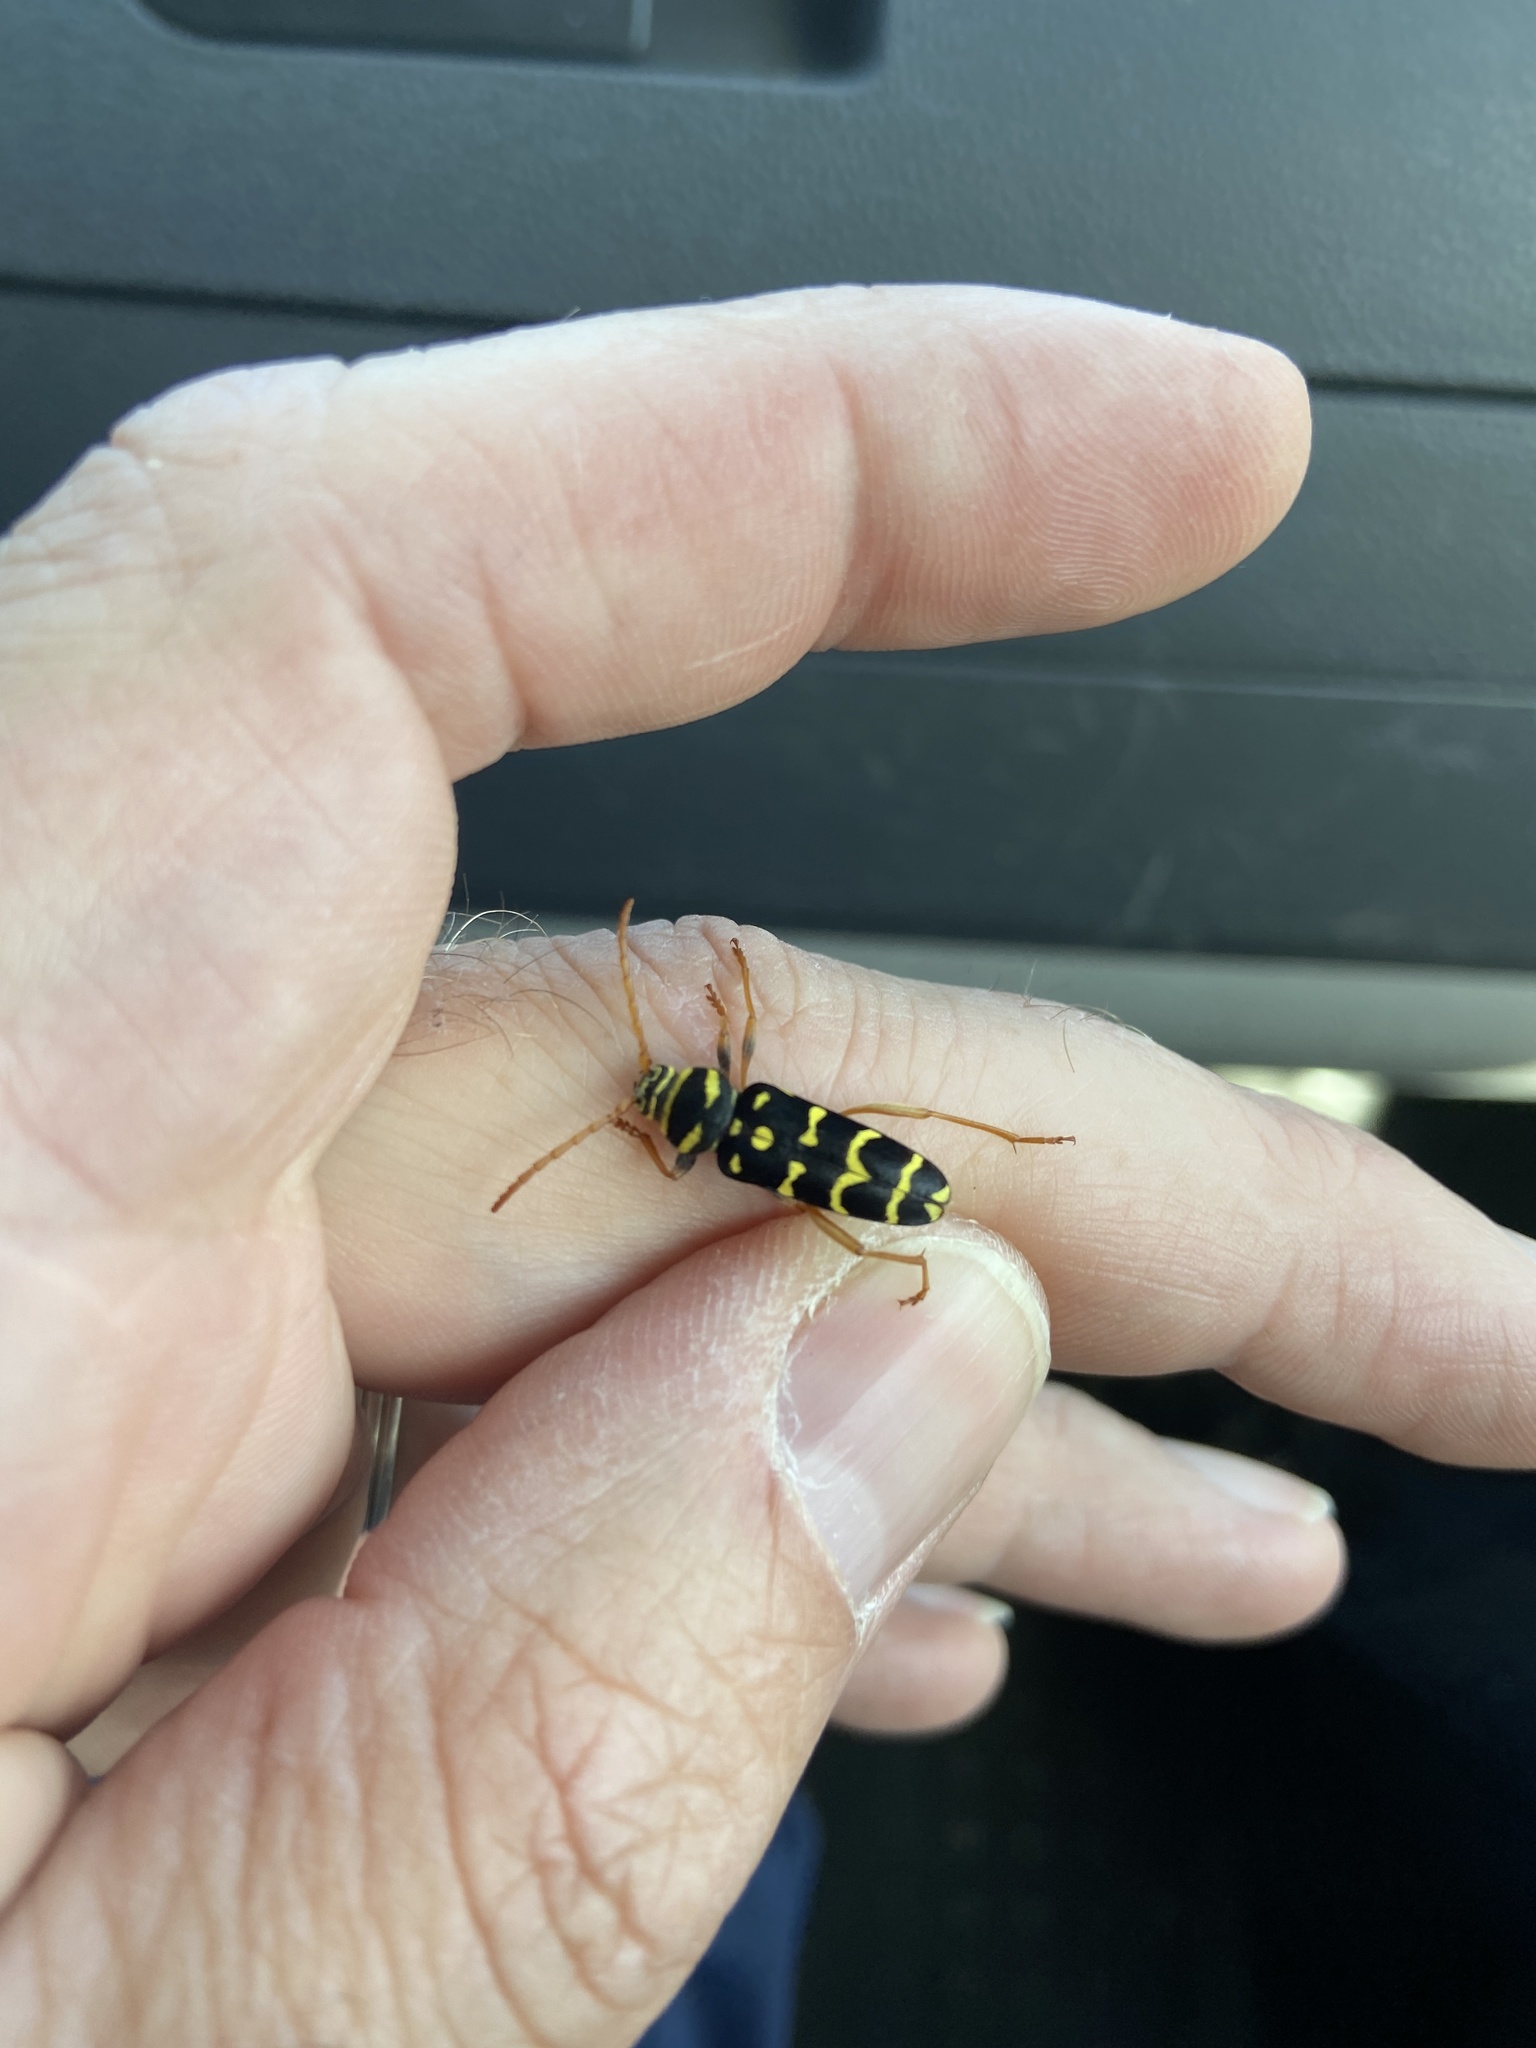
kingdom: Animalia
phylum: Arthropoda
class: Insecta
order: Coleoptera
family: Cerambycidae
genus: Plagionotus
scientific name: Plagionotus arcuatus
